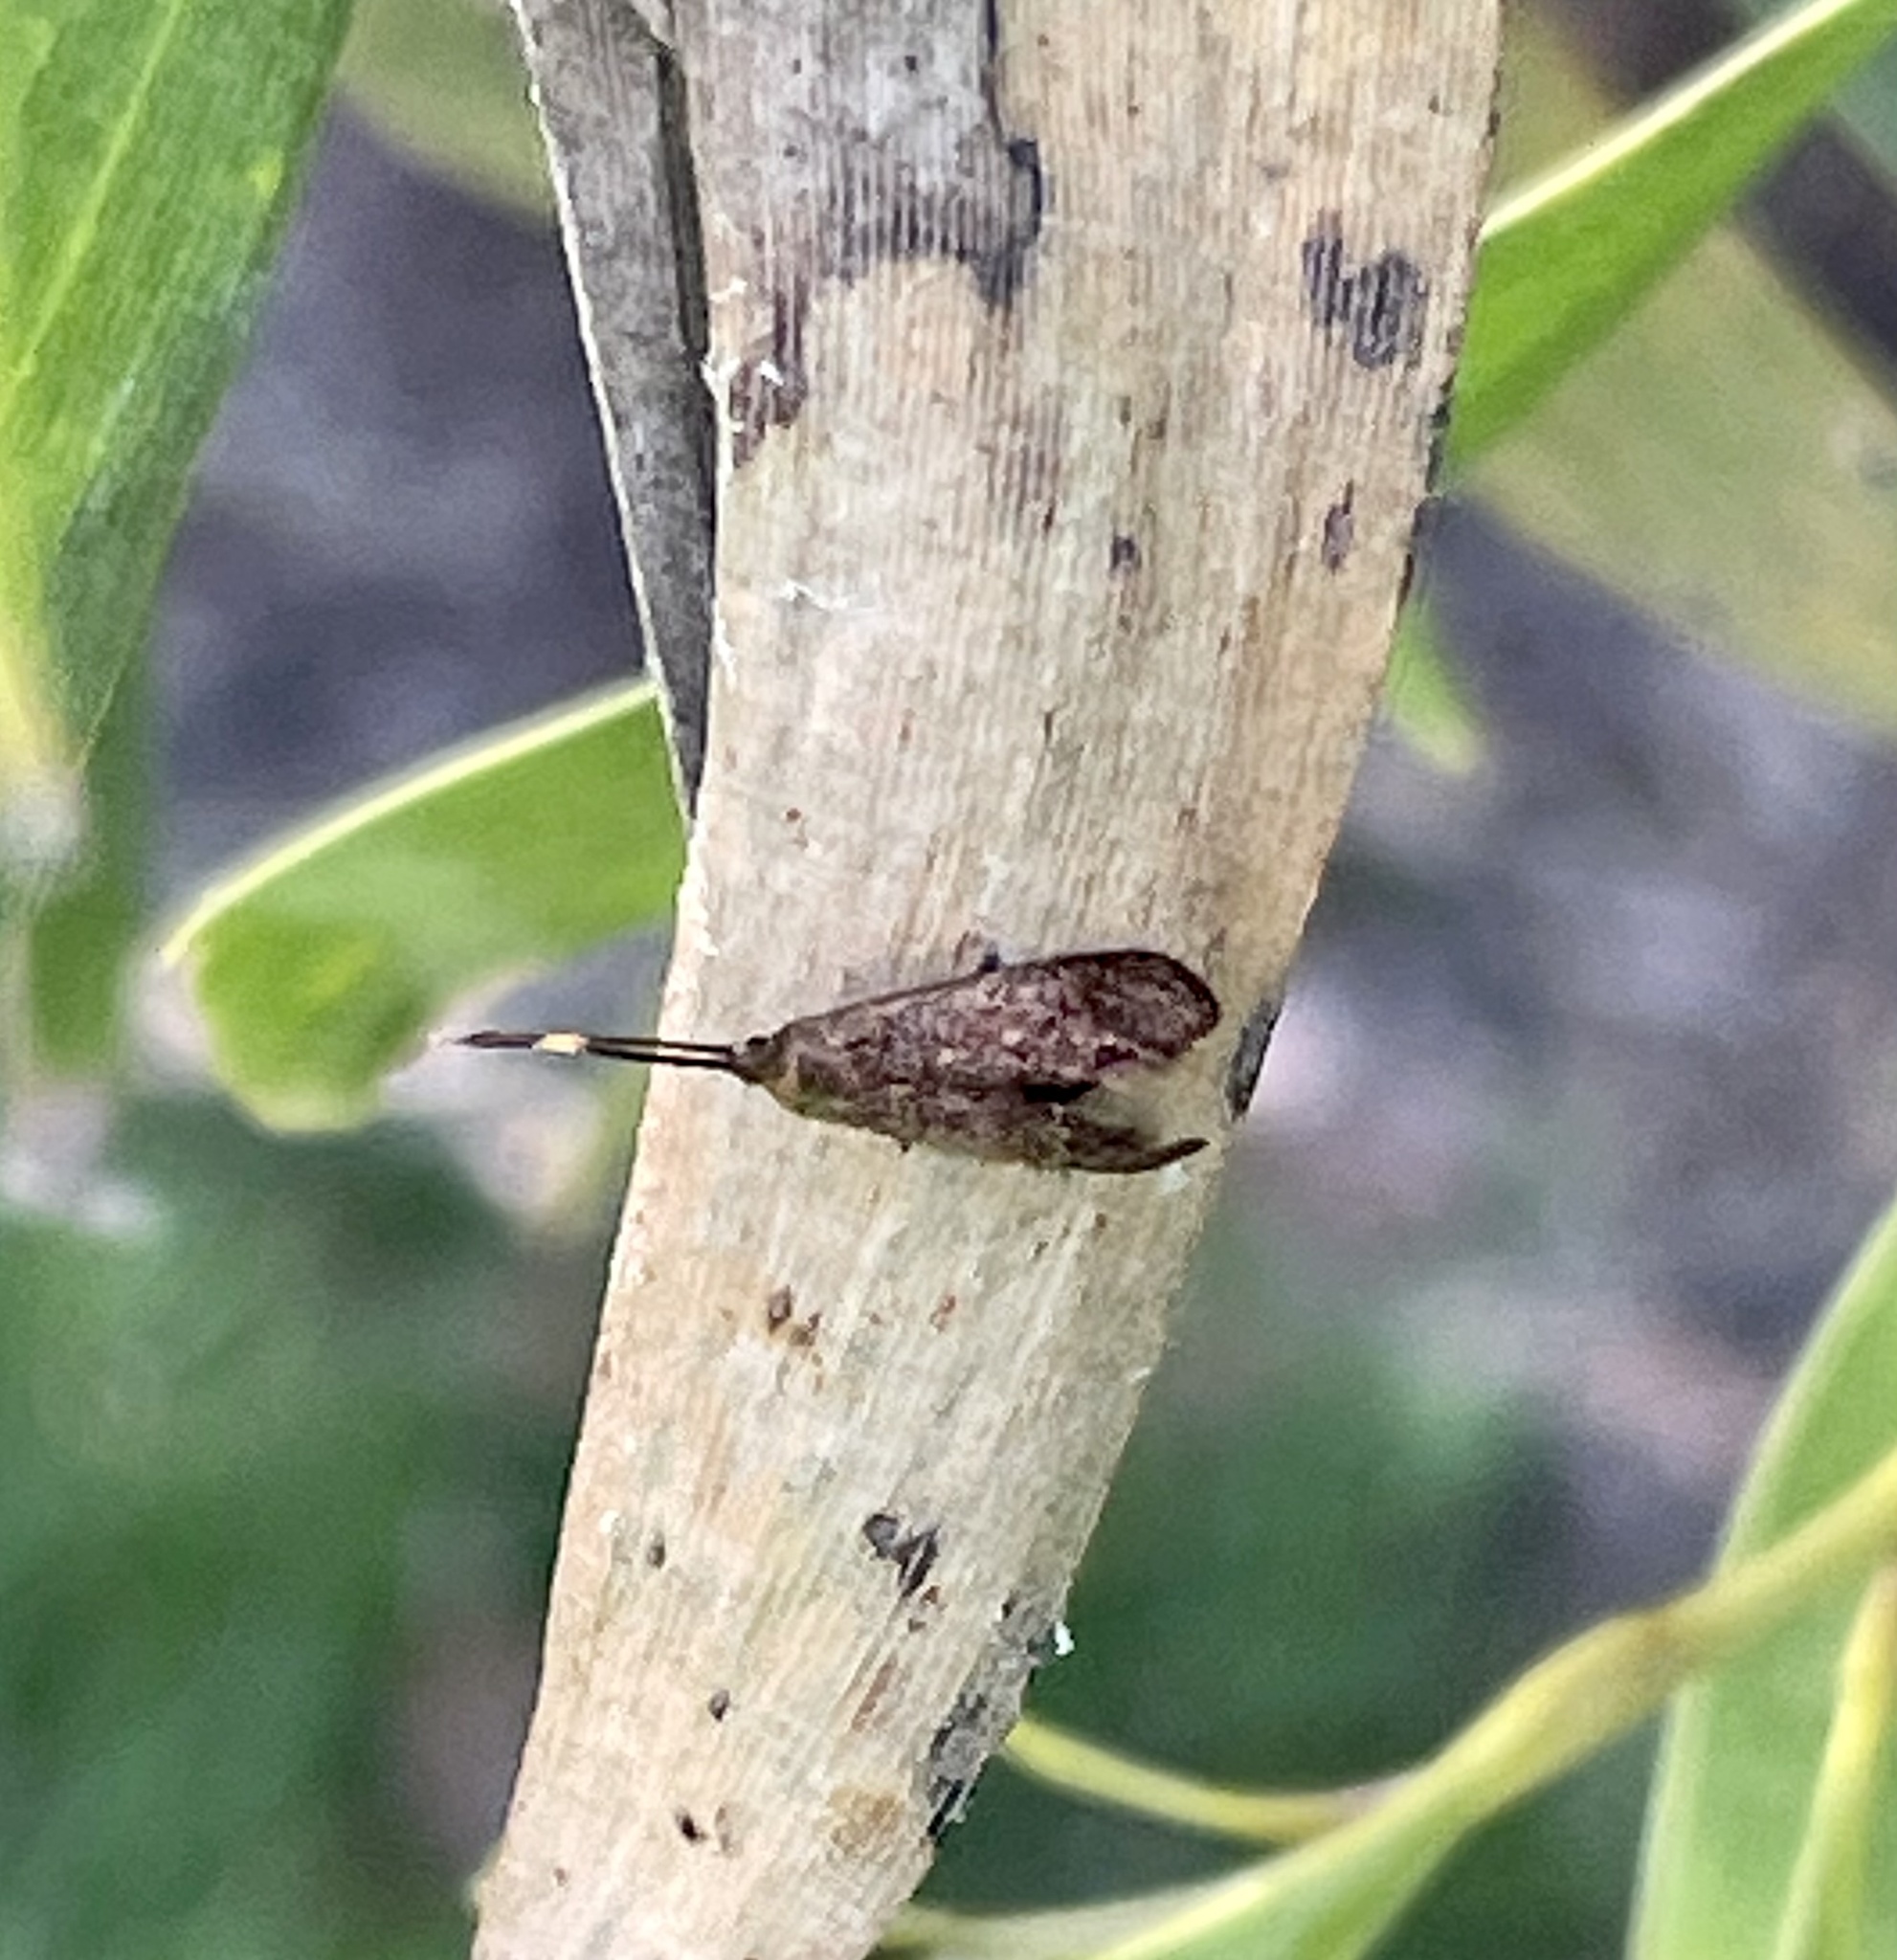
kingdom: Animalia
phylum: Arthropoda
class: Insecta
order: Lepidoptera
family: Psychidae
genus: Piestoceros
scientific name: Piestoceros conjunctella
